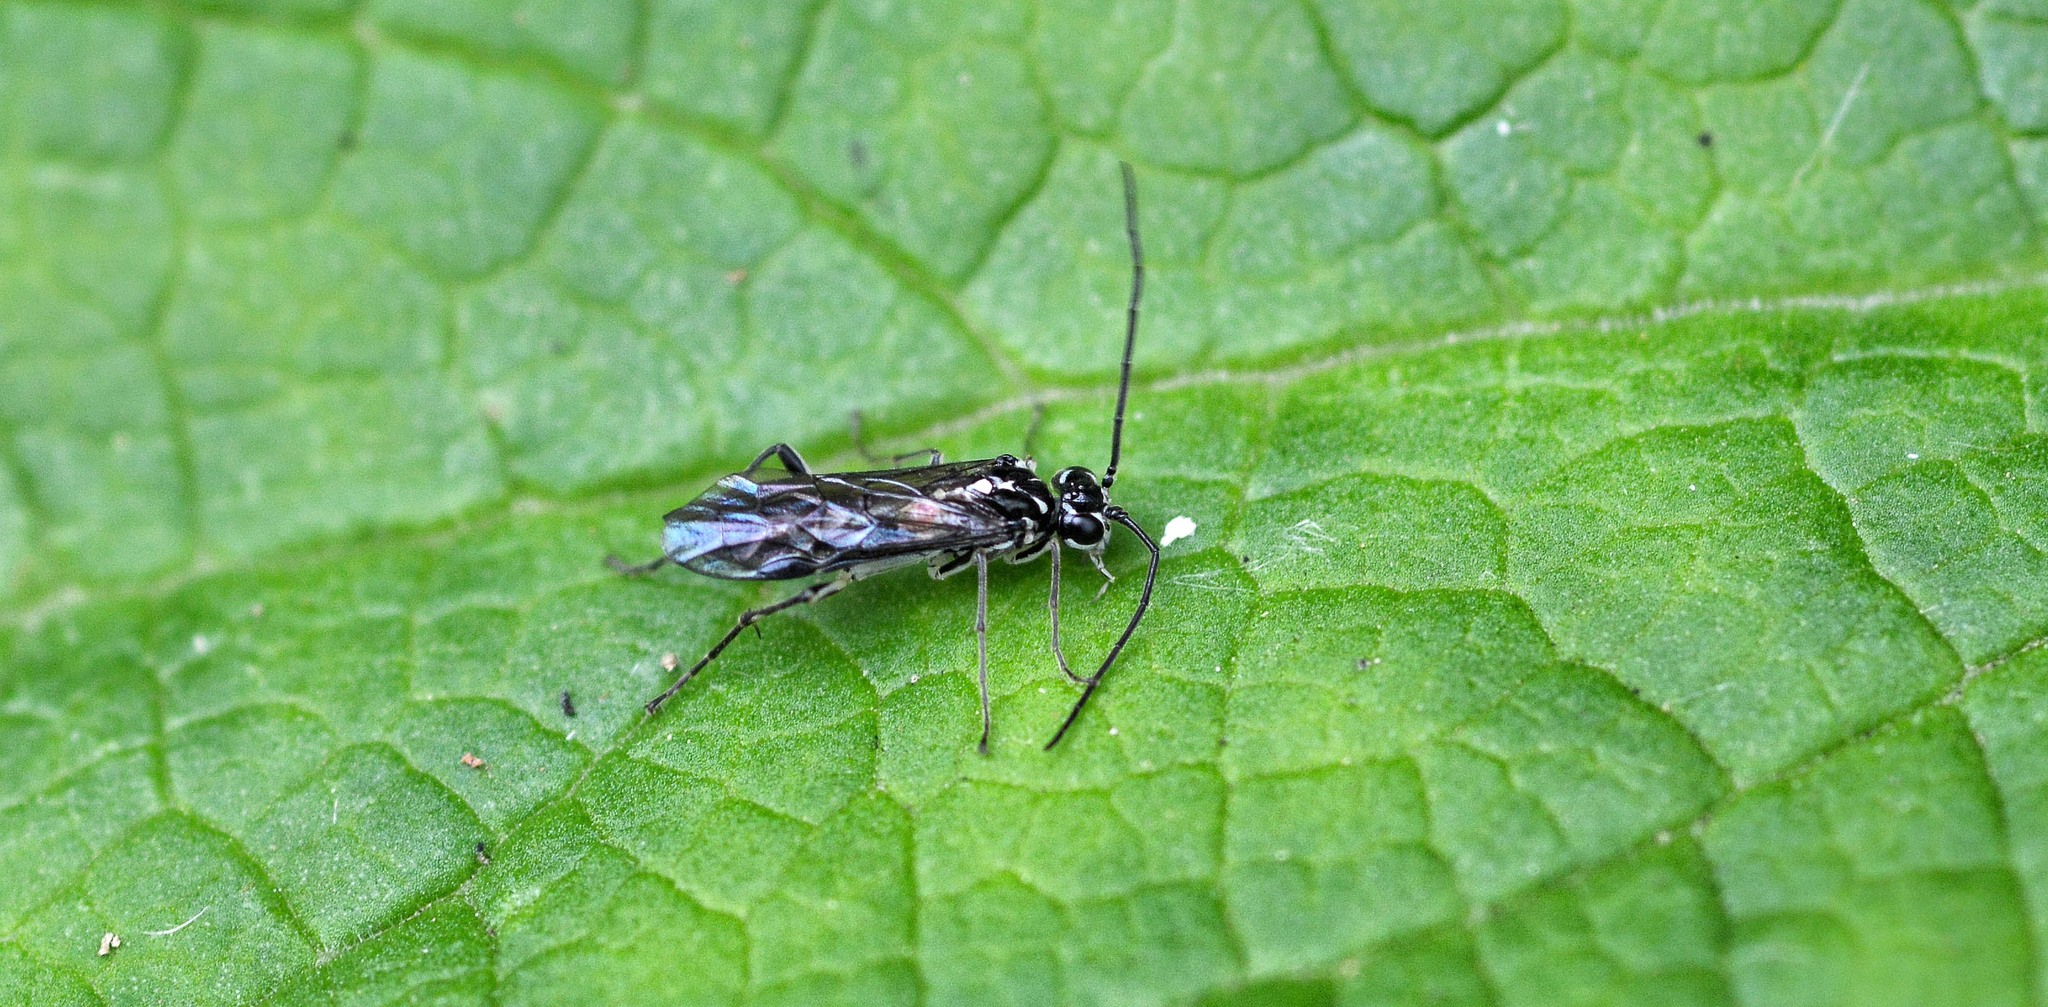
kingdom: Animalia
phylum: Arthropoda
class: Insecta
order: Hymenoptera
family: Tenthredinidae
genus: Pachyprotasis
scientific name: Pachyprotasis rapae
